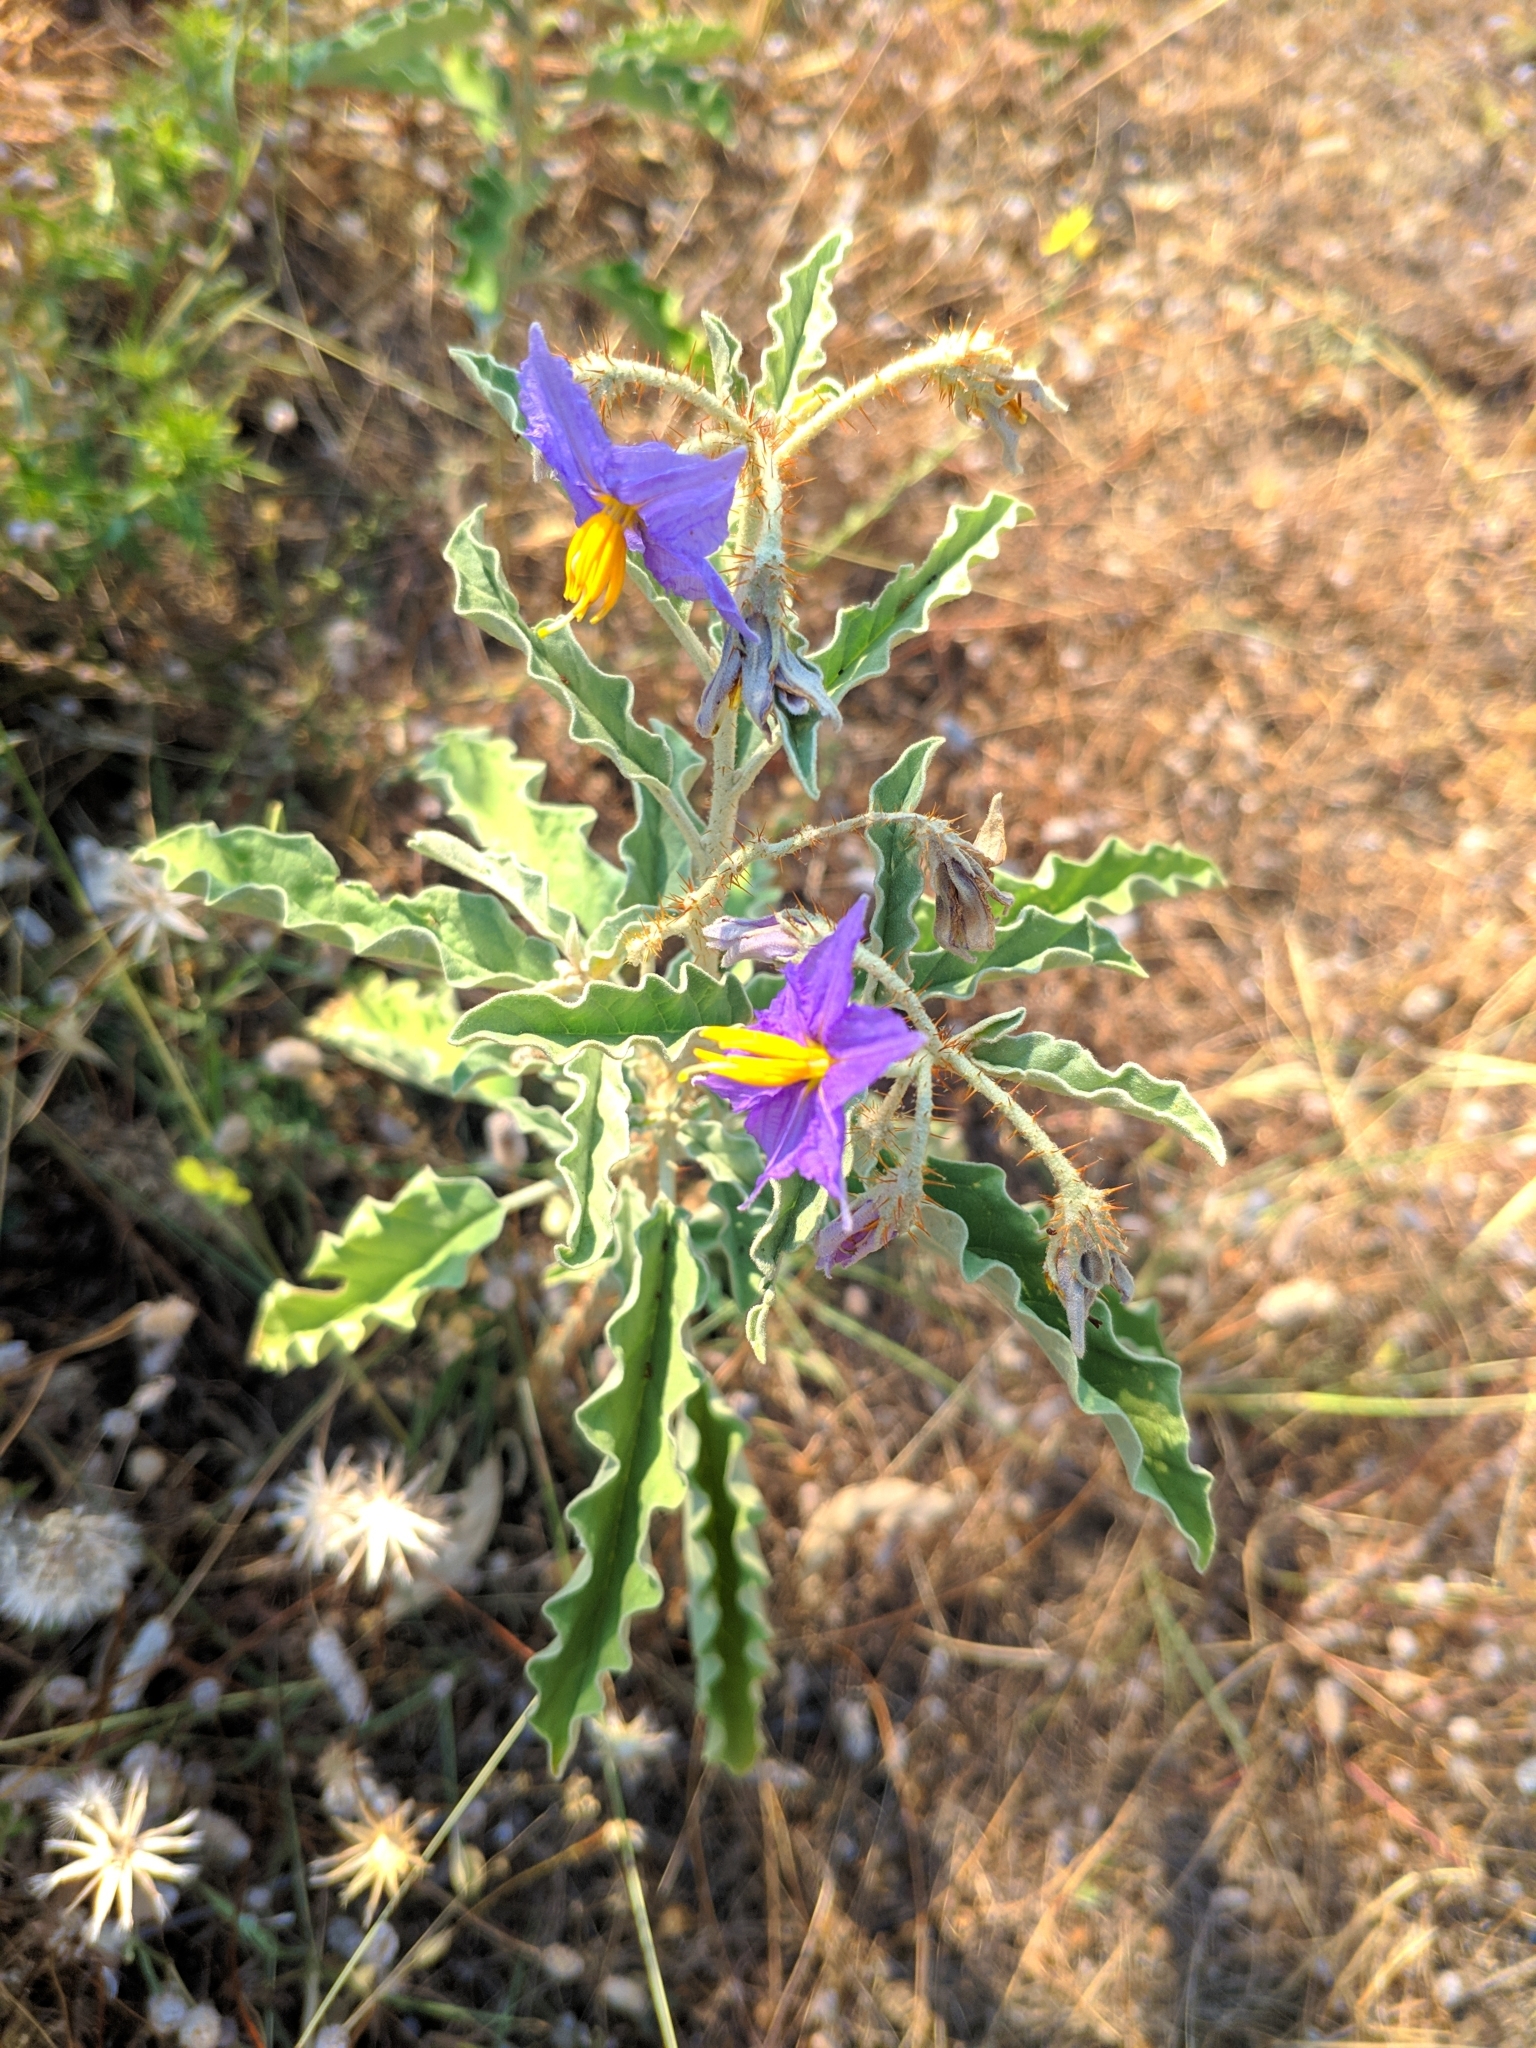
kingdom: Plantae
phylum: Tracheophyta
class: Magnoliopsida
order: Solanales
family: Solanaceae
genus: Solanum
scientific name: Solanum elaeagnifolium
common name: Silverleaf nightshade
